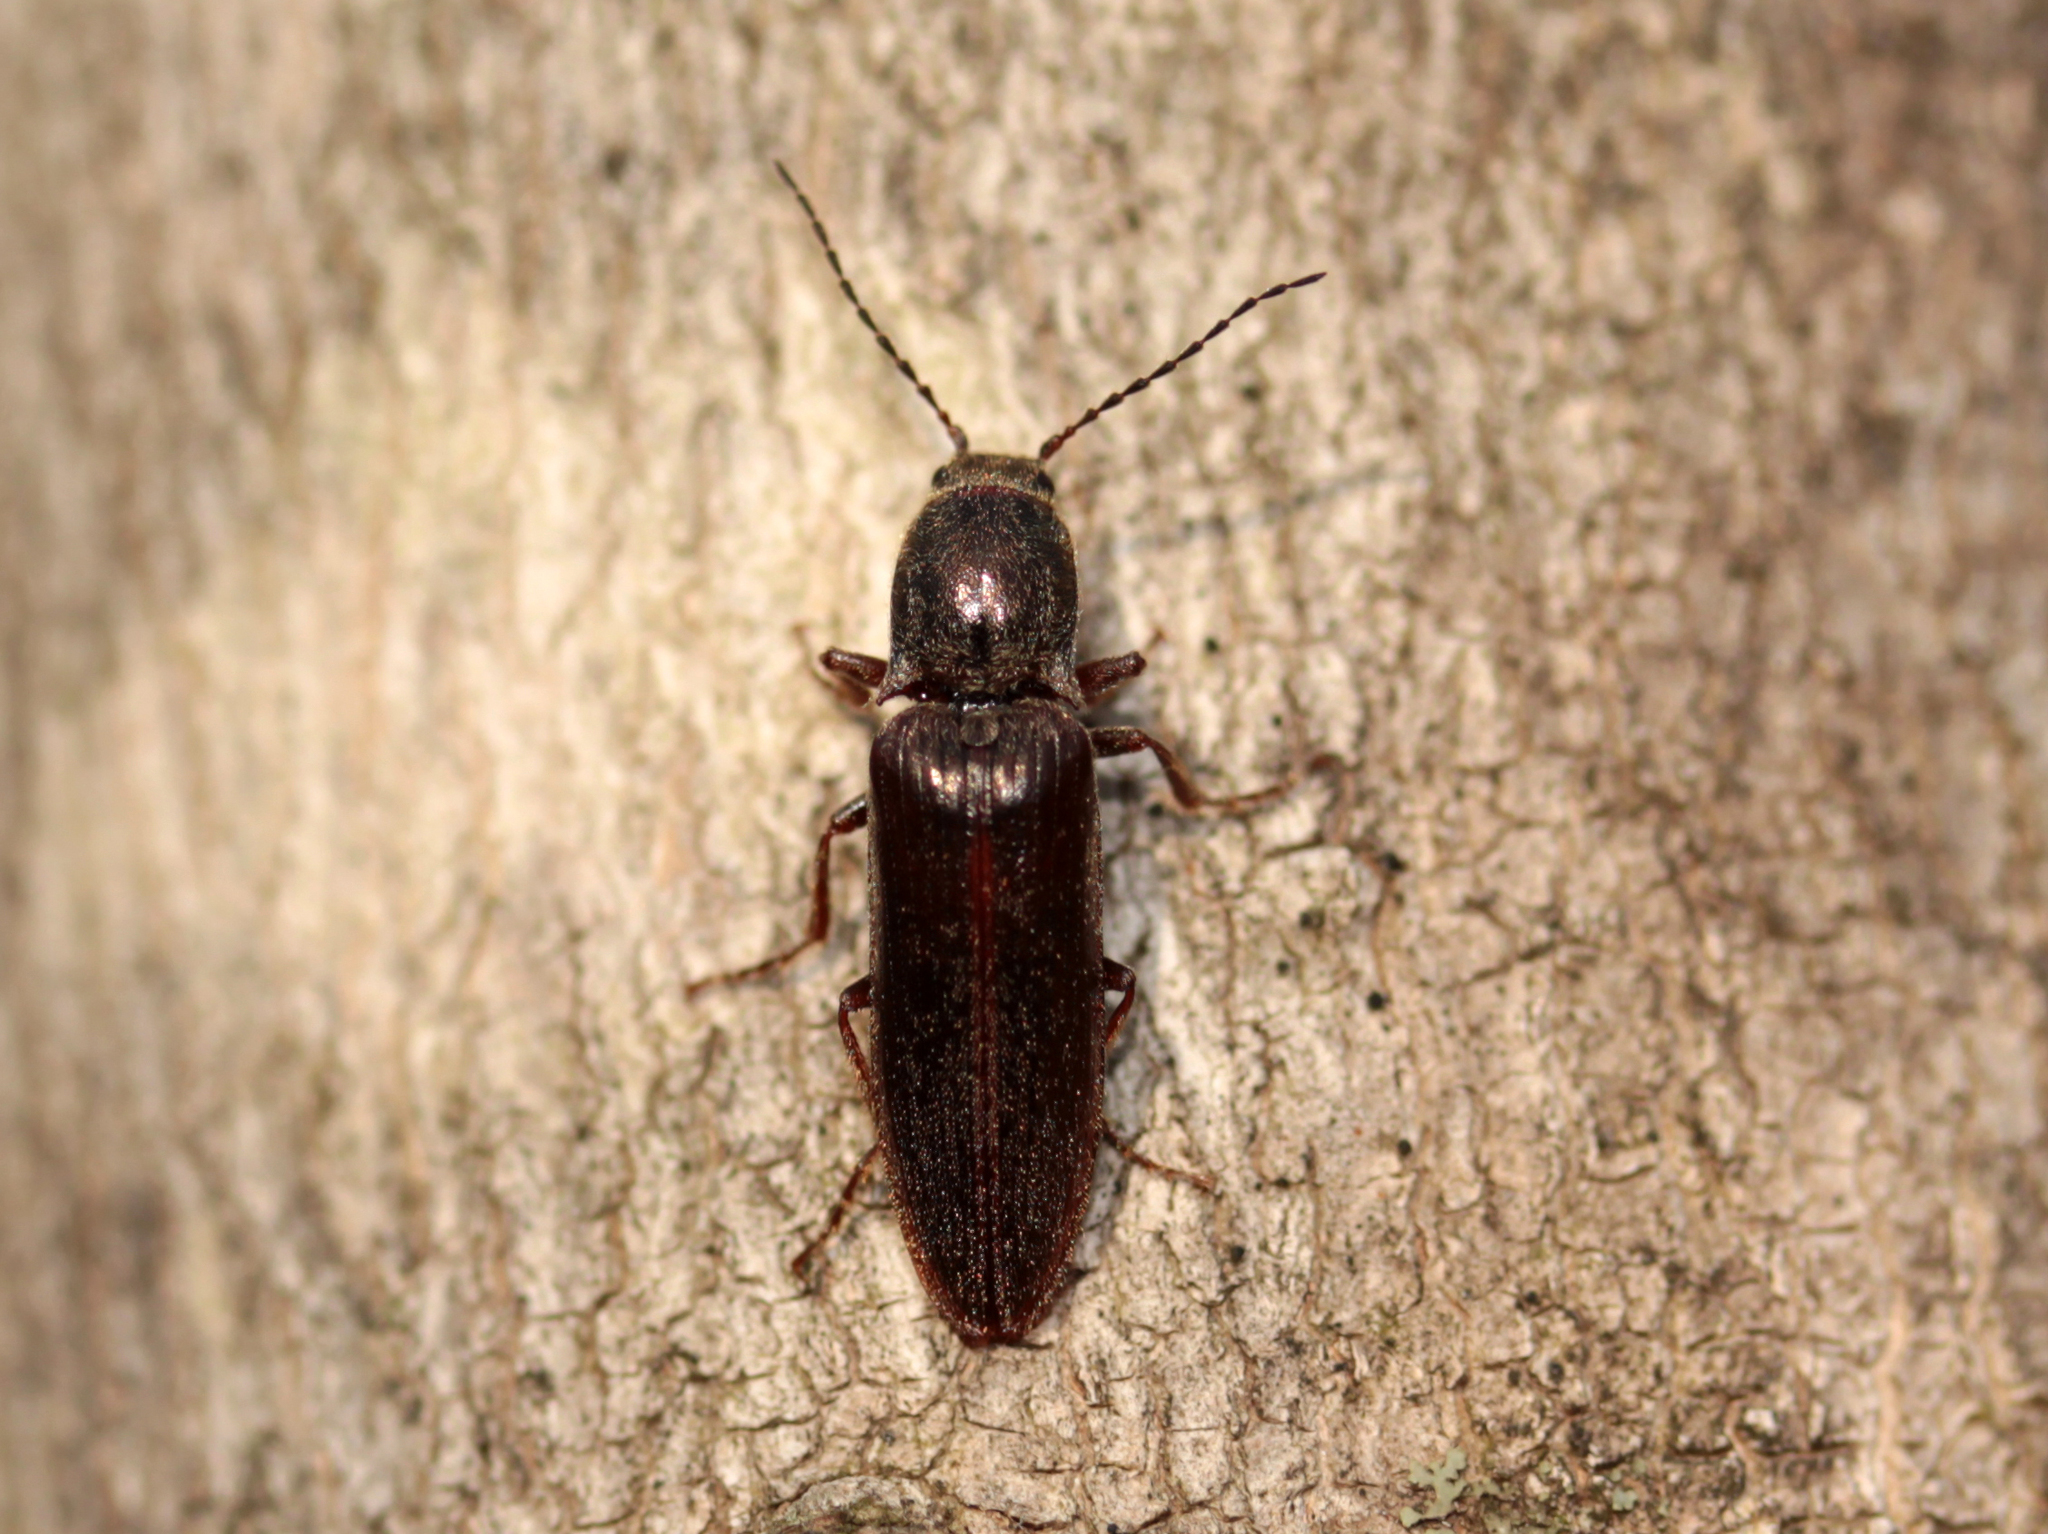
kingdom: Animalia
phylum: Arthropoda
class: Insecta
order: Coleoptera
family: Elateridae
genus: Sylvanelater
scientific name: Sylvanelater cylindriformis
